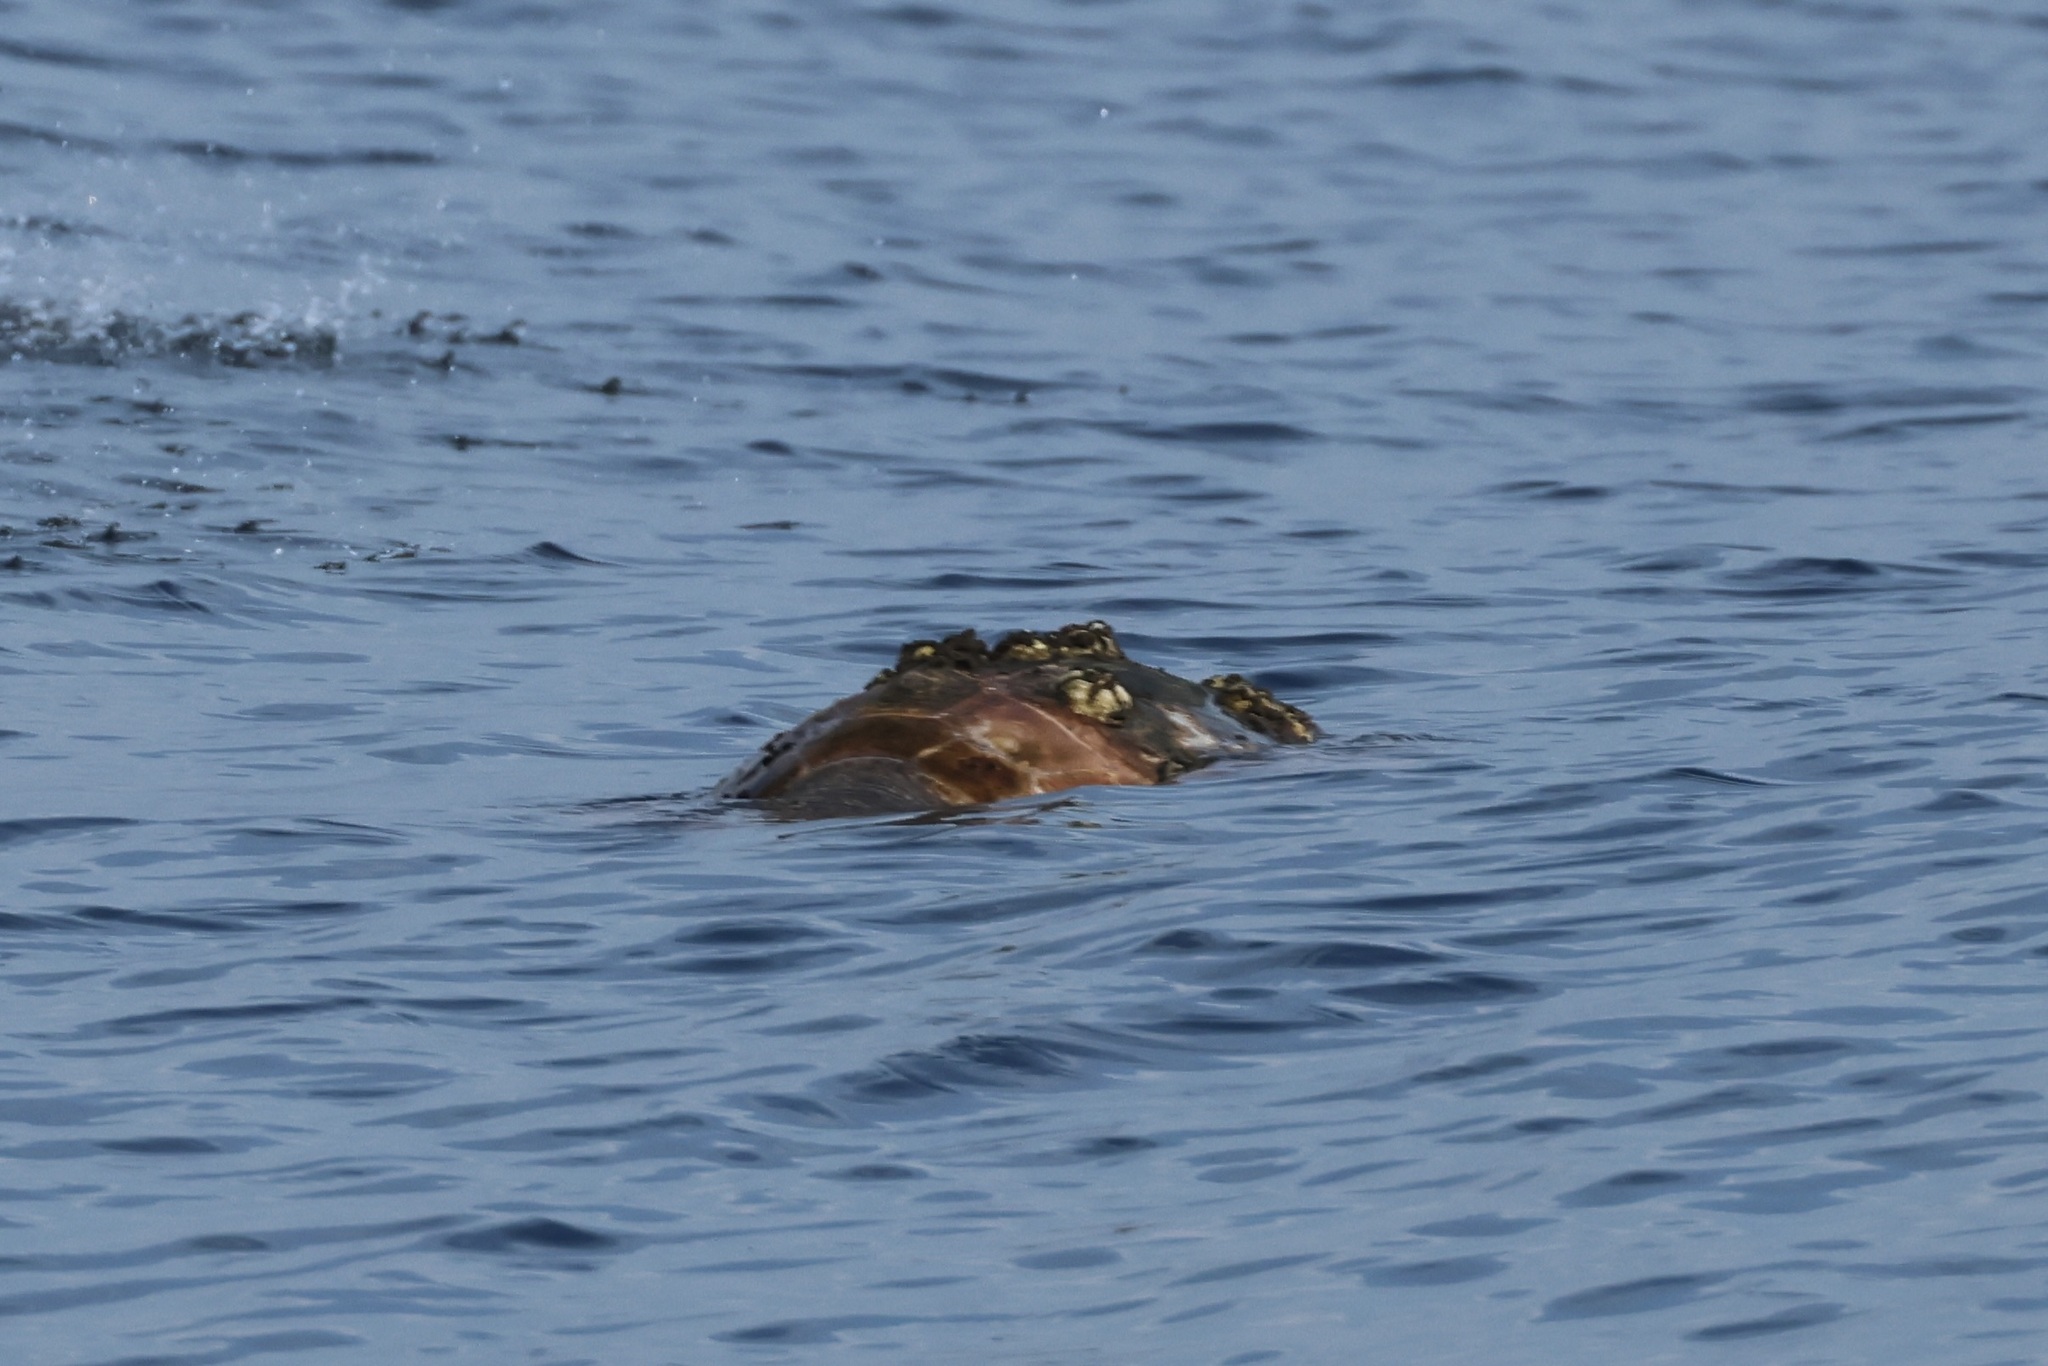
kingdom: Animalia
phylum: Chordata
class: Testudines
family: Cheloniidae
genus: Caretta
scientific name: Caretta caretta
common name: Loggerhead sea turtle
